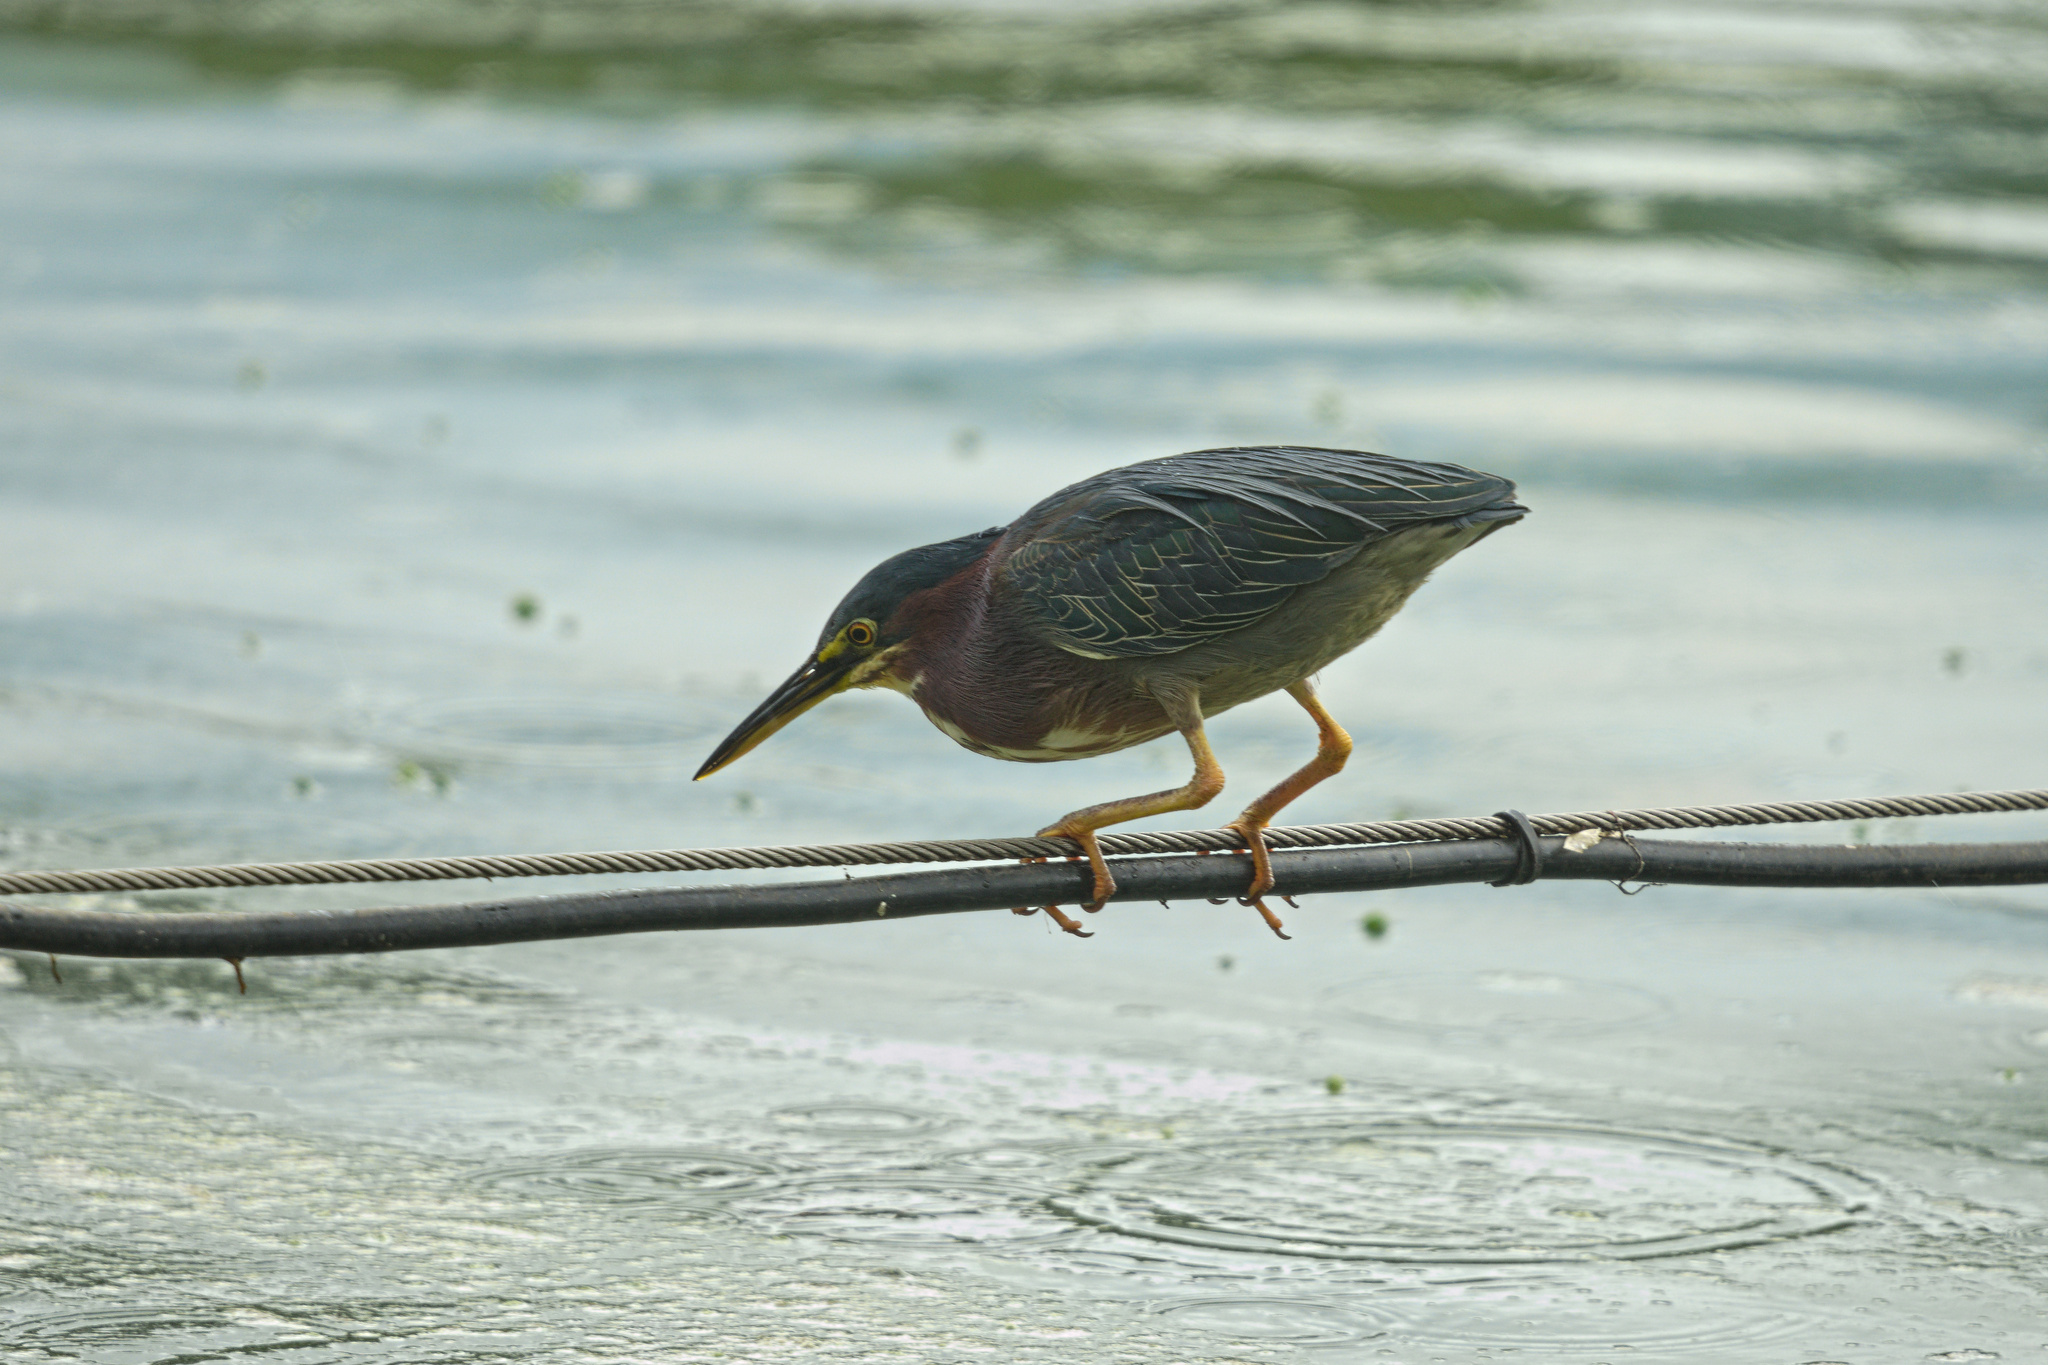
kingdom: Animalia
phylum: Chordata
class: Aves
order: Pelecaniformes
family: Ardeidae
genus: Butorides
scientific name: Butorides virescens
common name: Green heron
